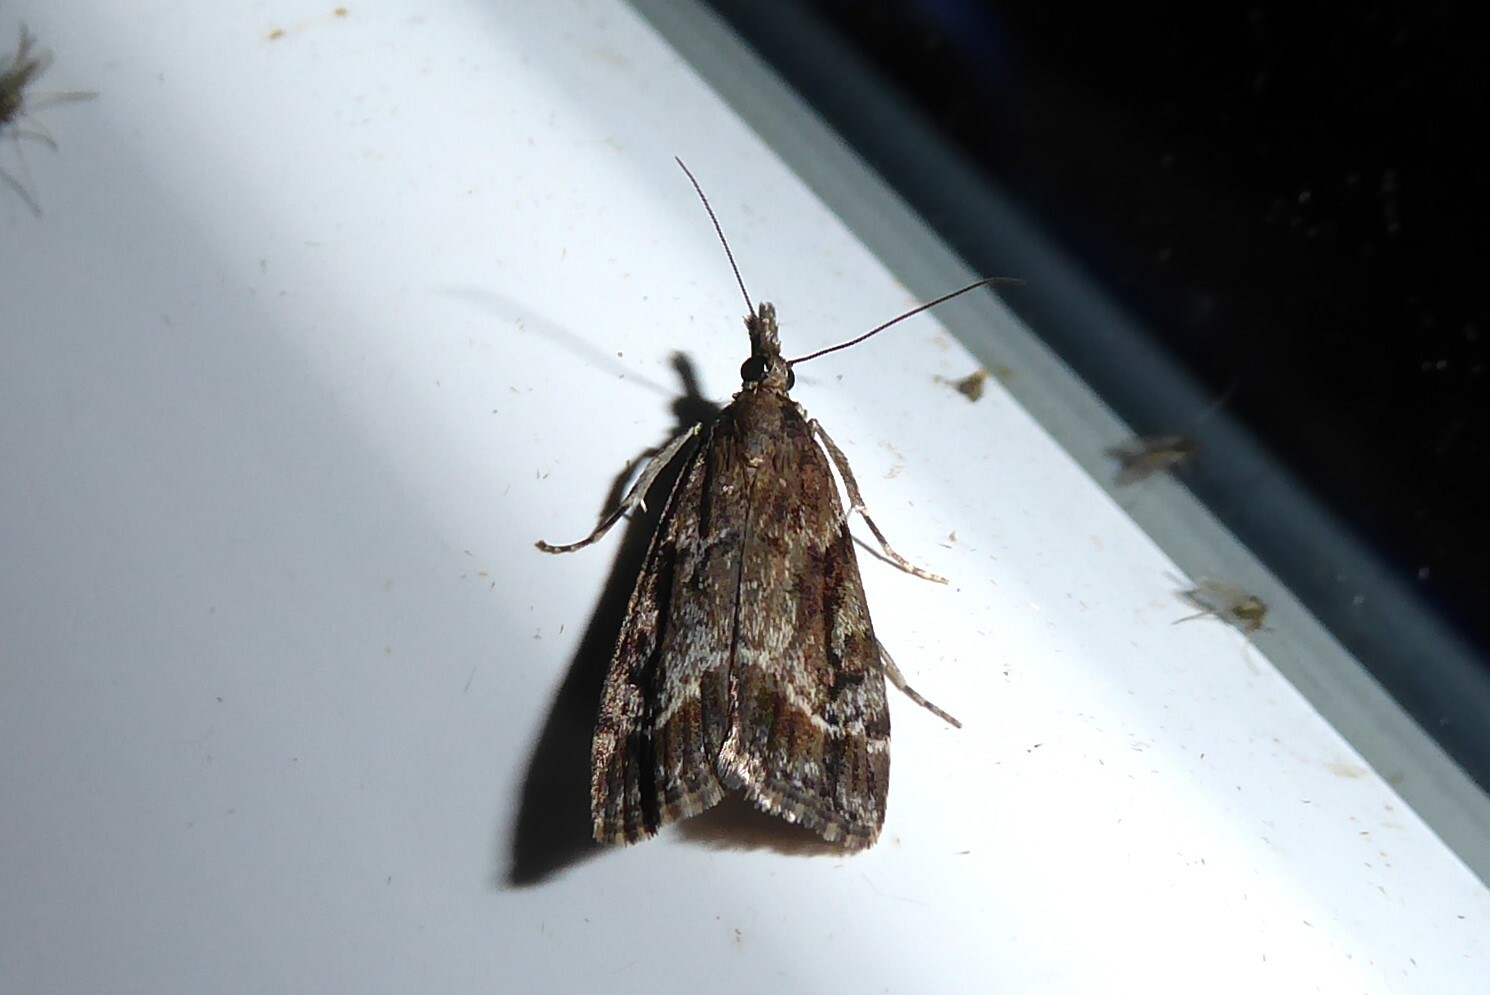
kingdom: Animalia
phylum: Arthropoda
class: Insecta
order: Lepidoptera
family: Crambidae
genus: Eudonia
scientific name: Eudonia legnota
